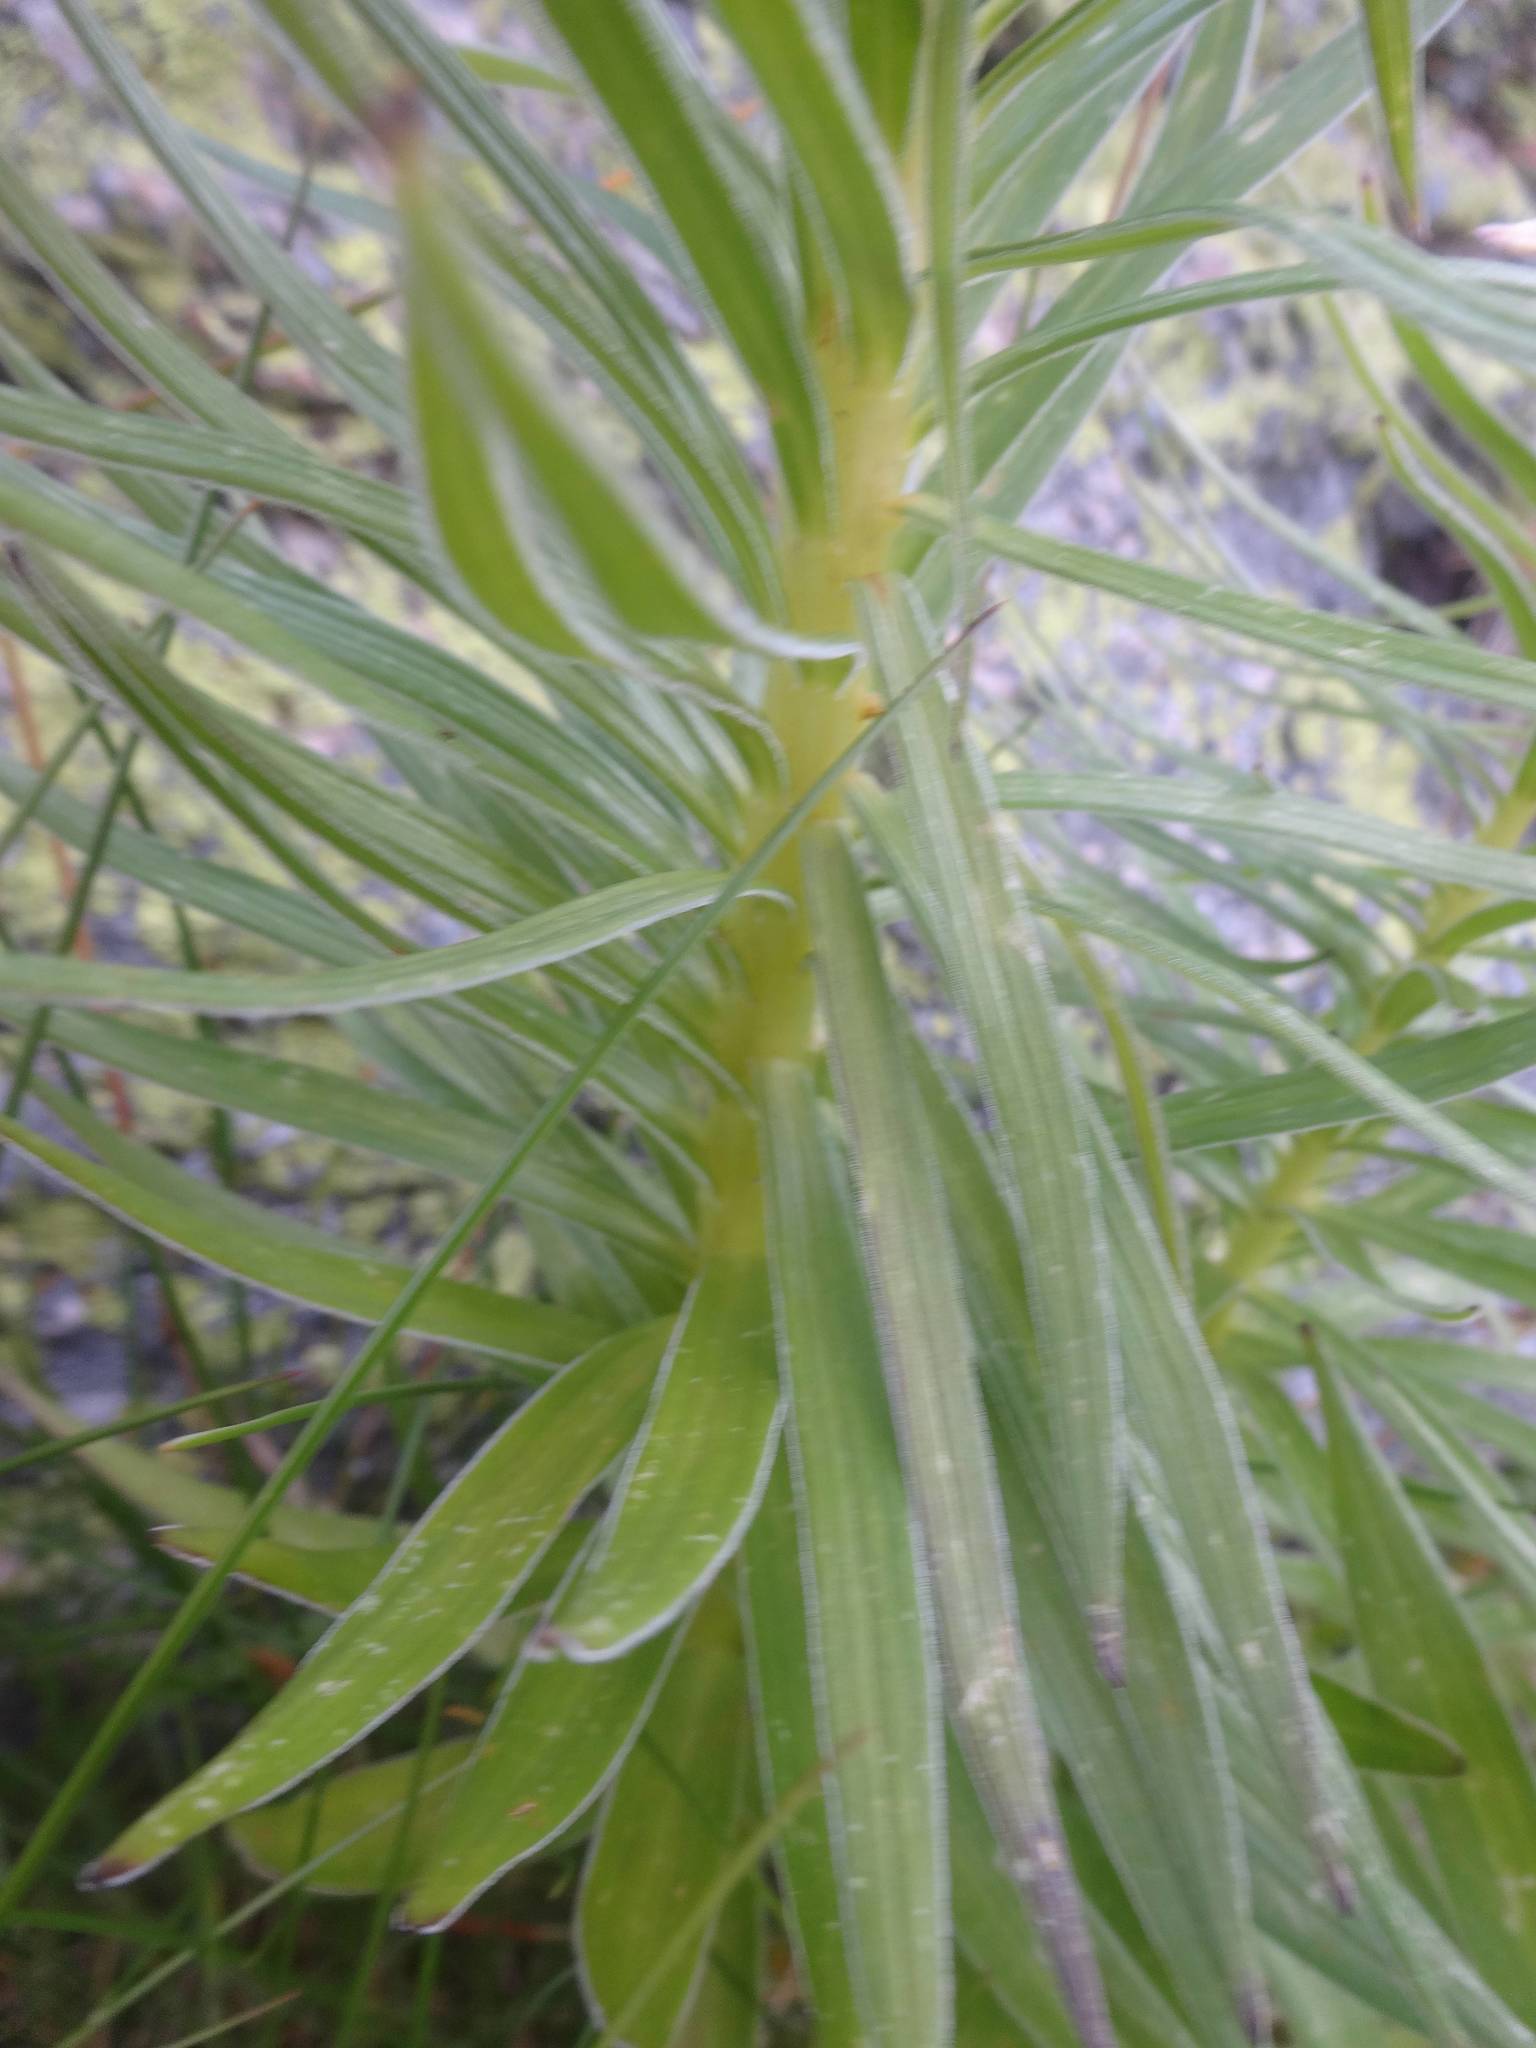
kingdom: Plantae
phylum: Tracheophyta
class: Liliopsida
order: Liliales
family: Liliaceae
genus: Lilium
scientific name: Lilium pyrenaicum
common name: Pyrenean lily
